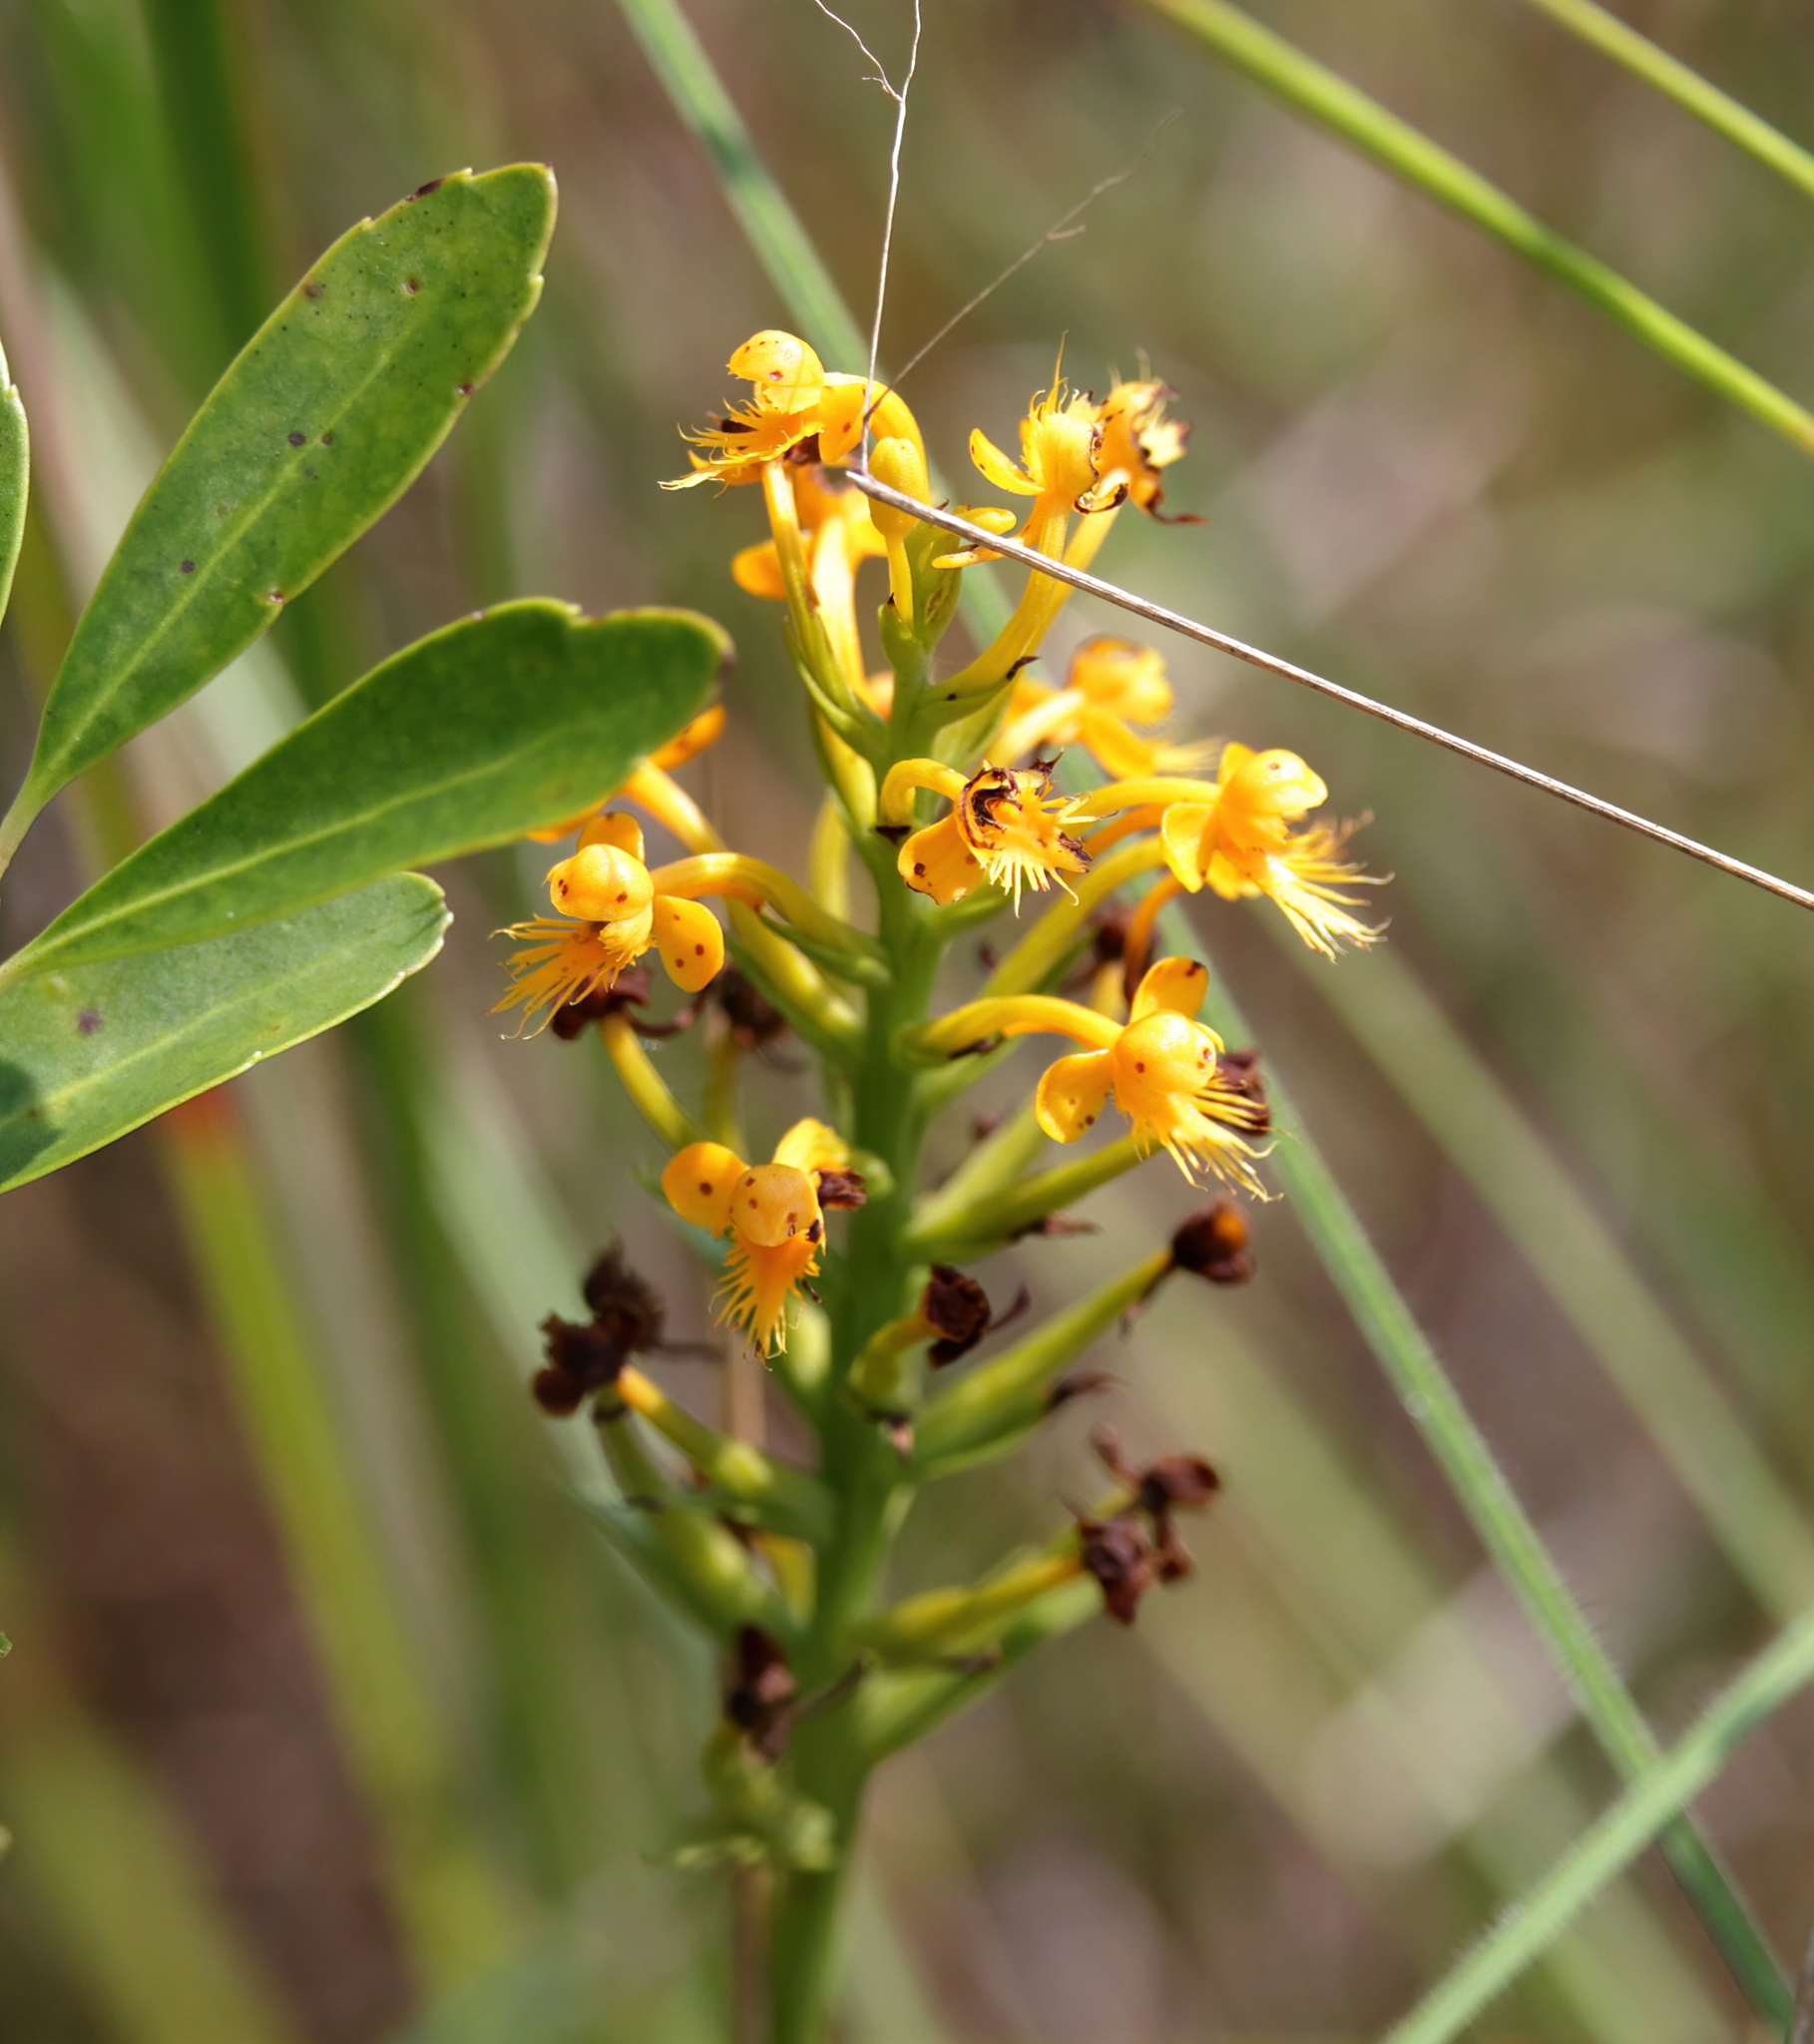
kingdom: Plantae
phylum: Tracheophyta
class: Liliopsida
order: Asparagales
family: Orchidaceae
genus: Platanthera
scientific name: Platanthera cristata
